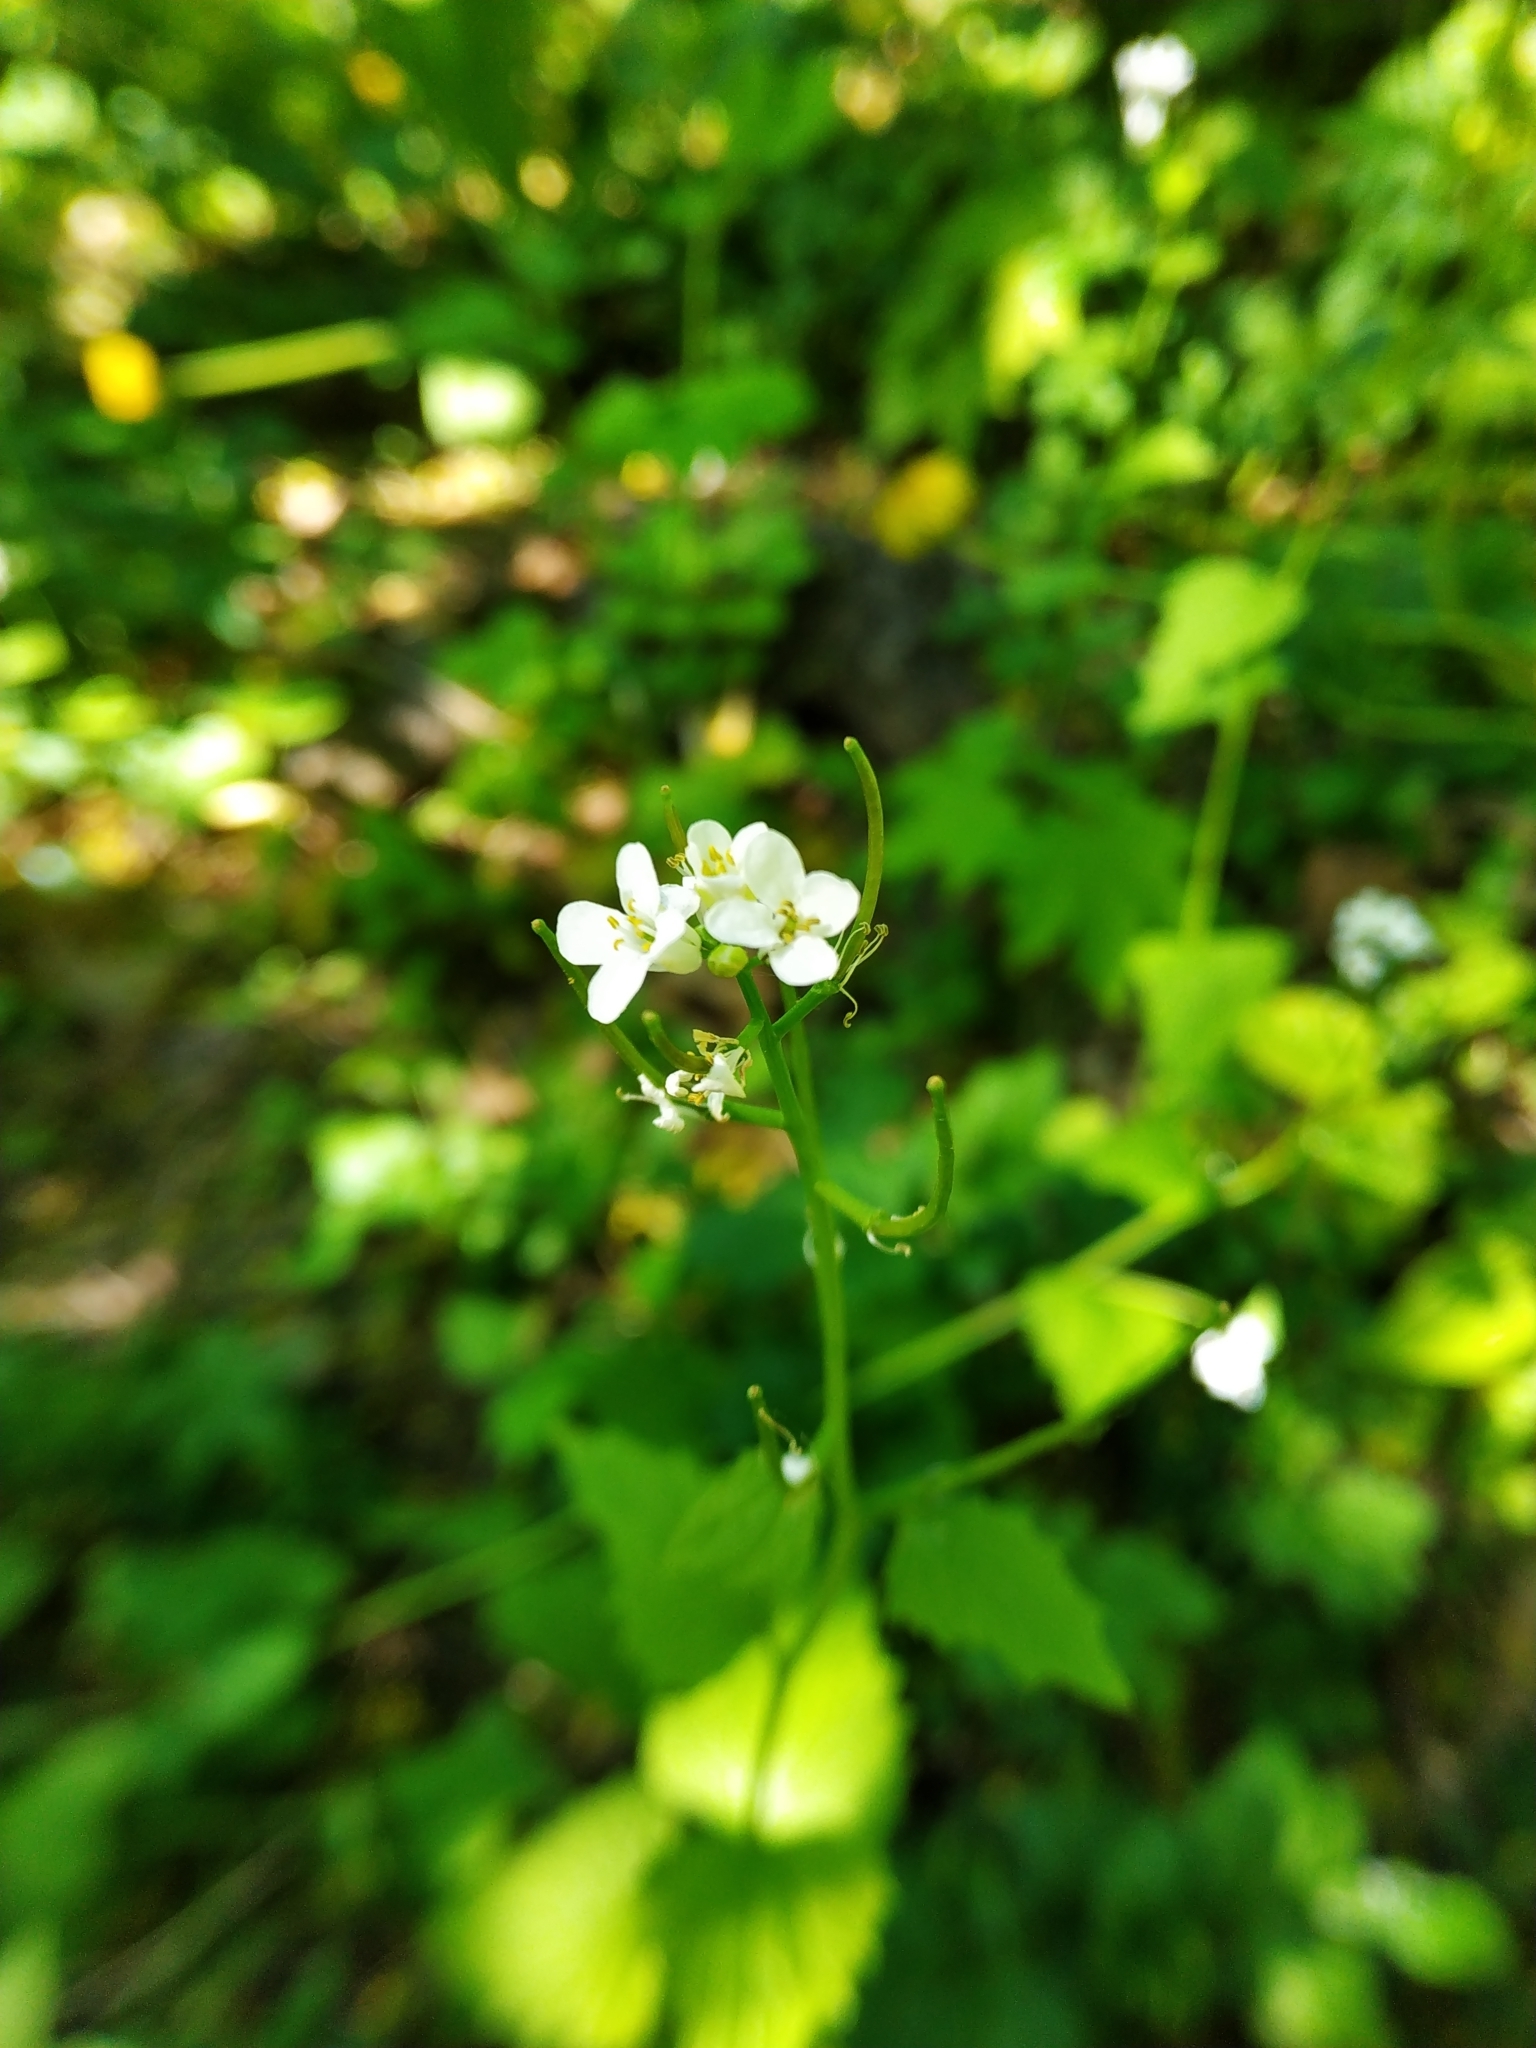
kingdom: Plantae
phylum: Tracheophyta
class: Magnoliopsida
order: Brassicales
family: Brassicaceae
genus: Alliaria
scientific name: Alliaria petiolata
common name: Garlic mustard
